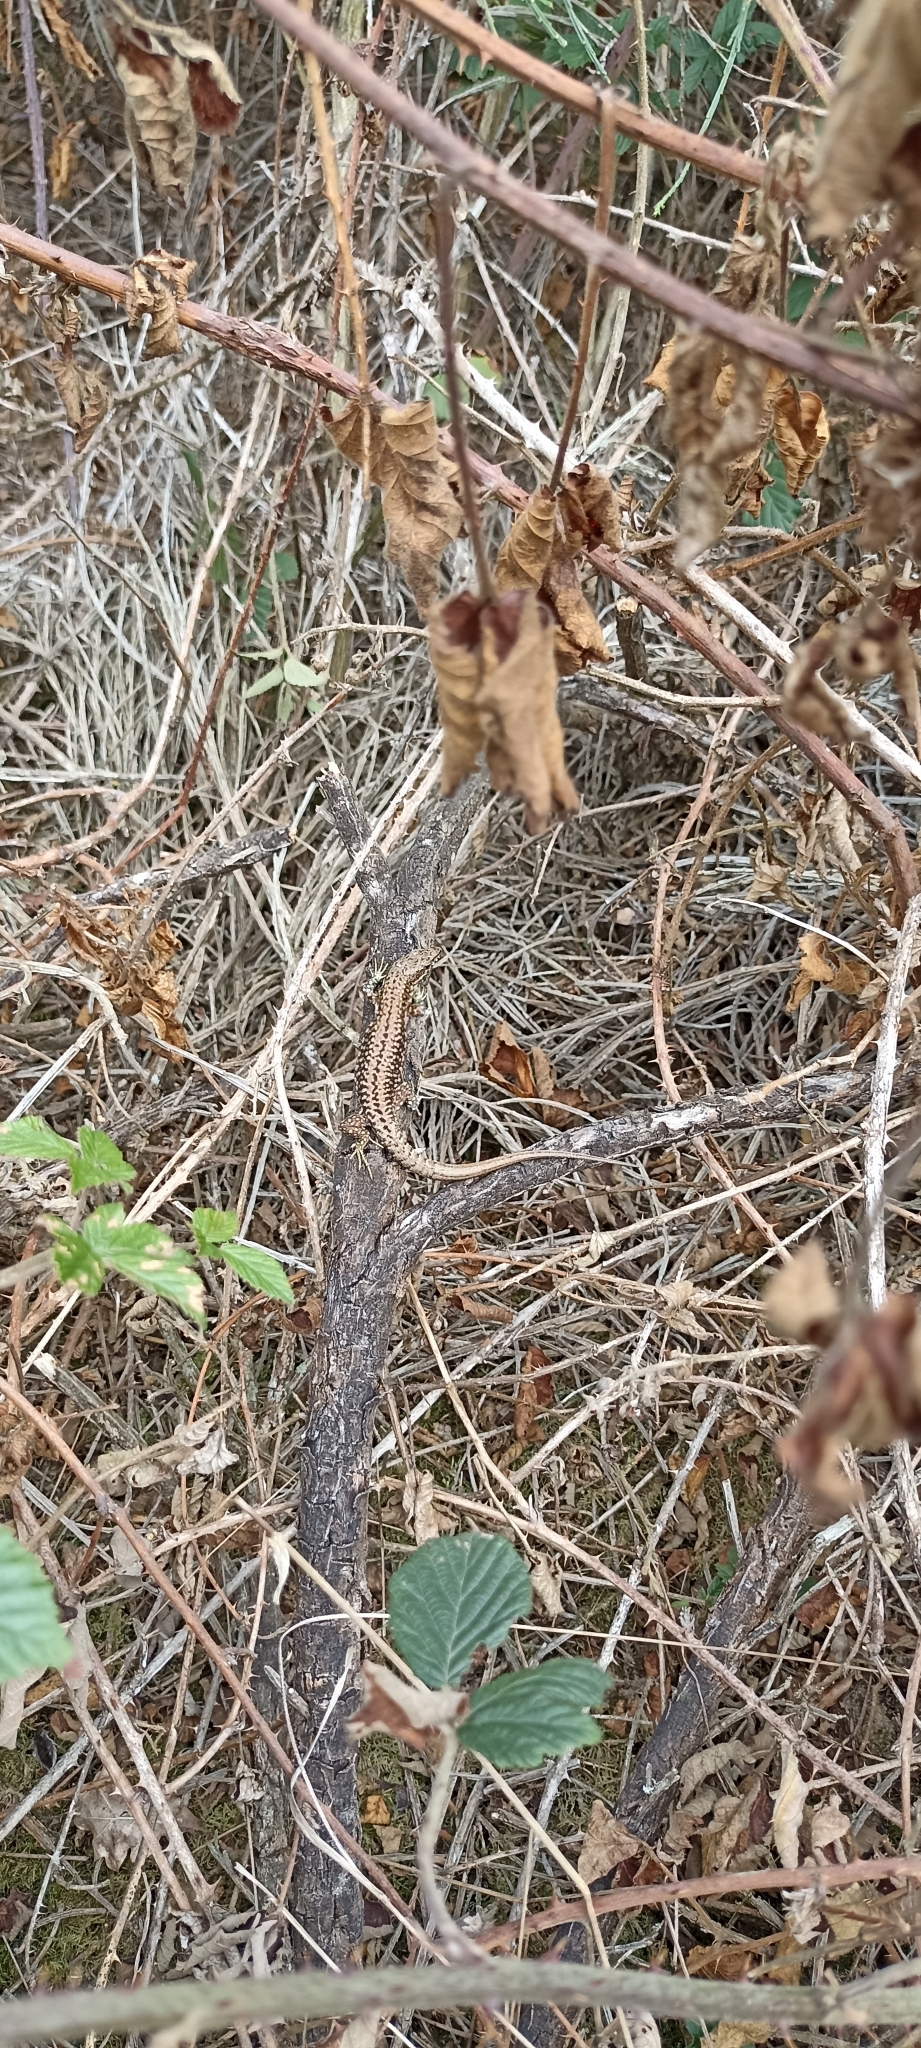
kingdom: Animalia
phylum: Chordata
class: Squamata
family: Lacertidae
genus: Podarcis
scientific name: Podarcis muralis
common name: Common wall lizard
